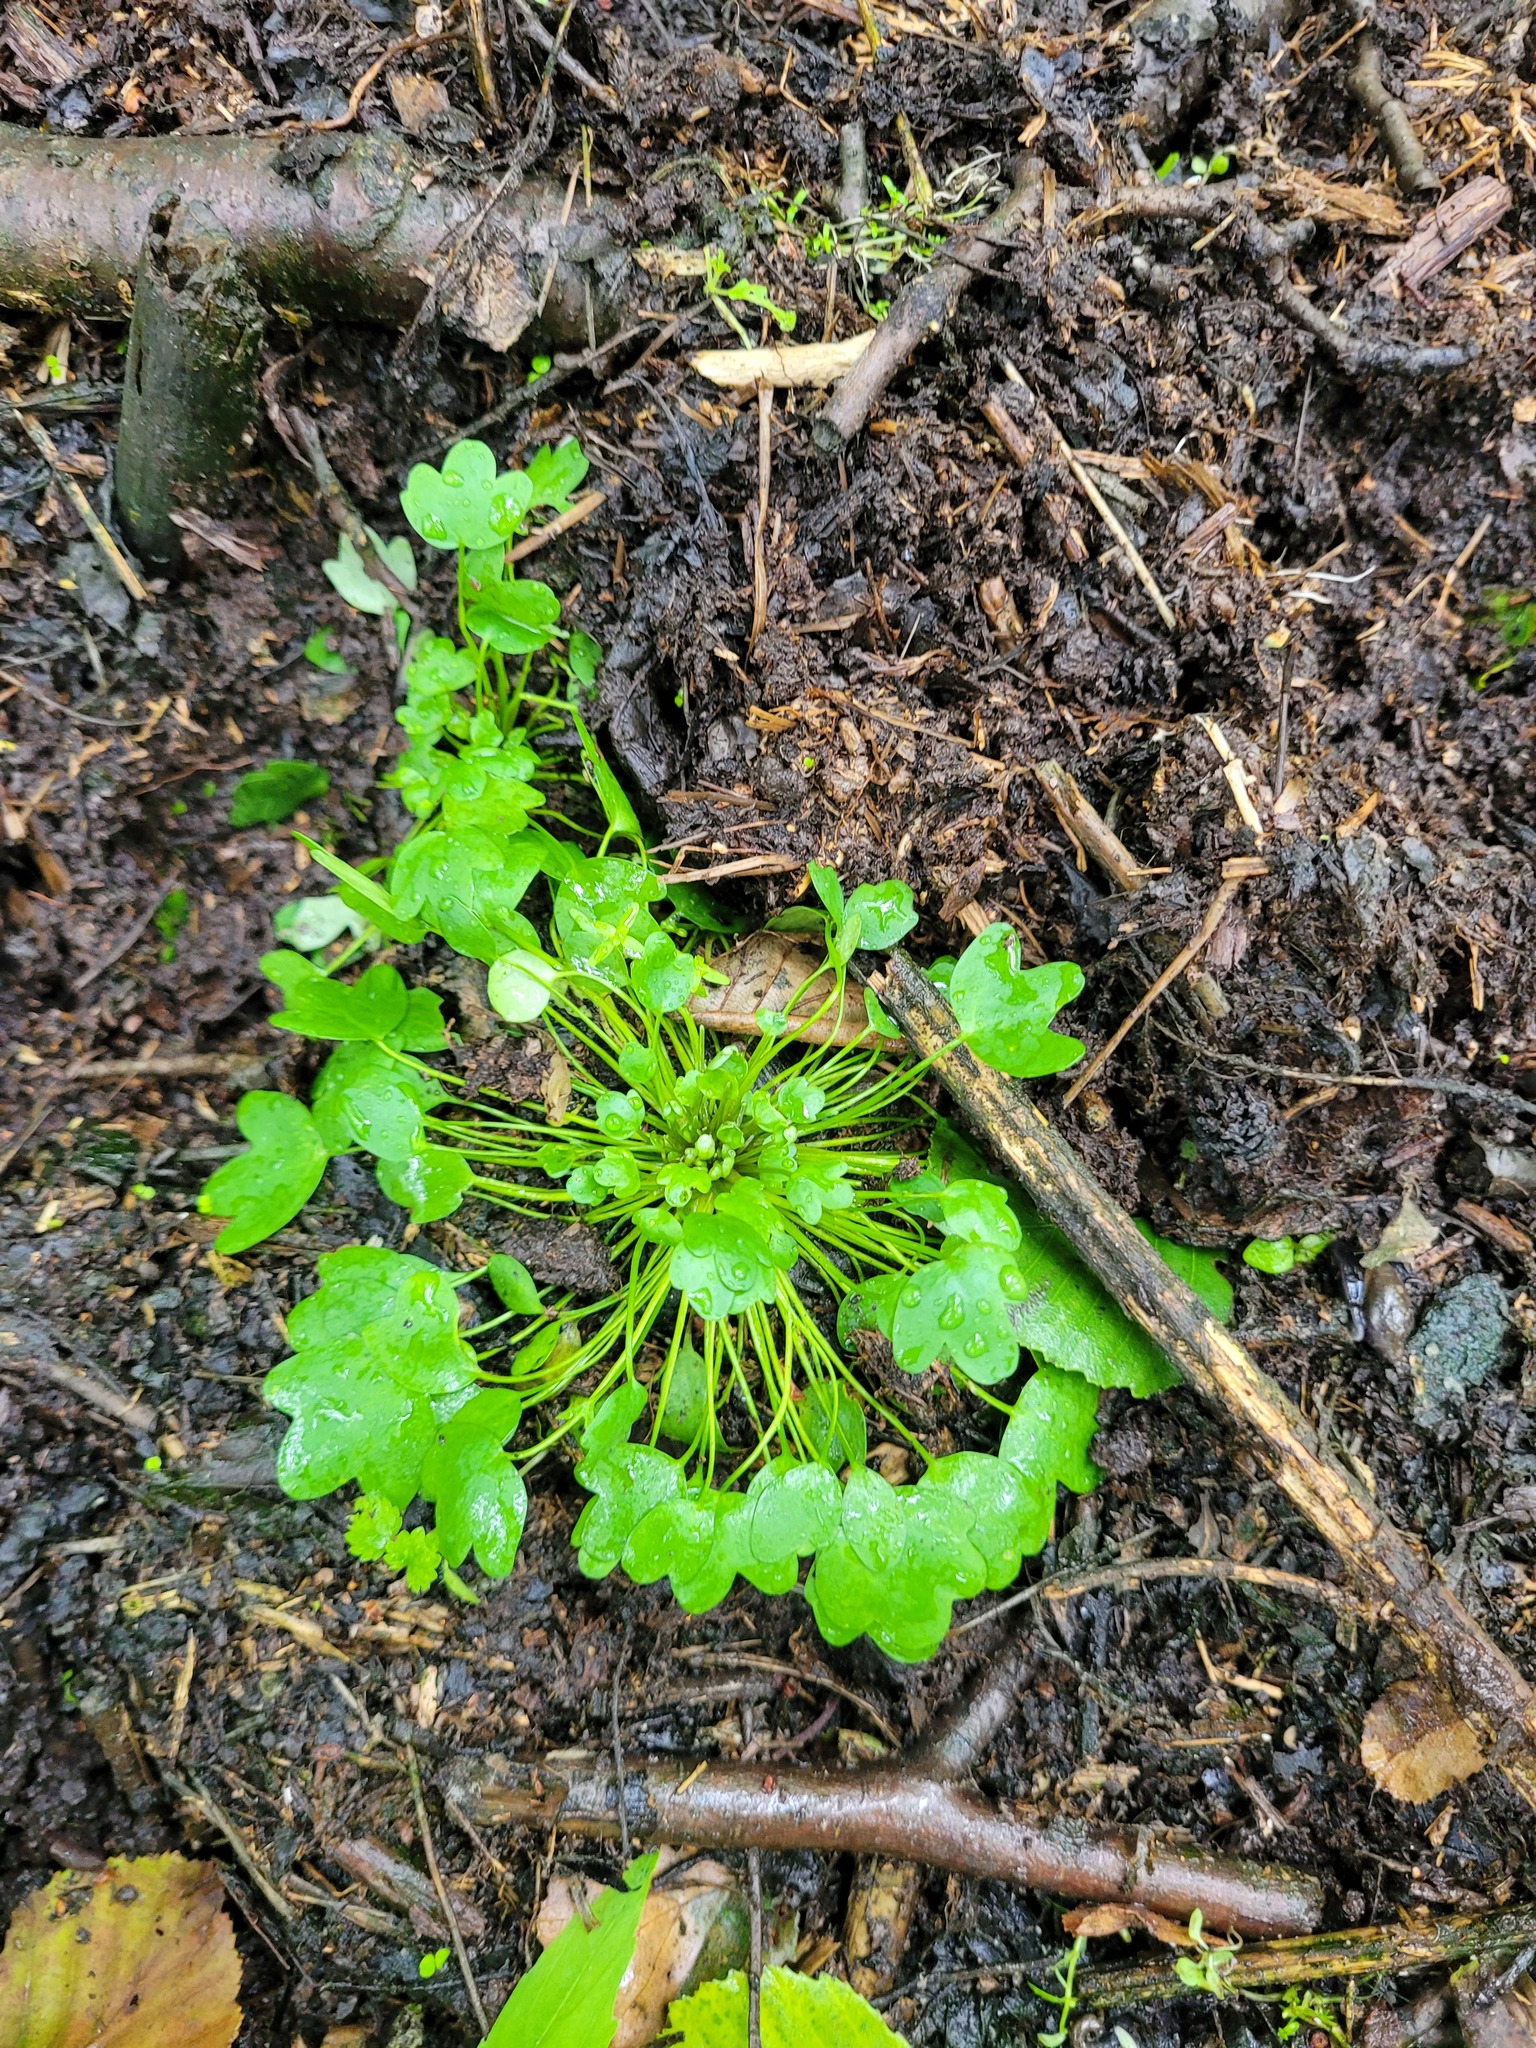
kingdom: Plantae
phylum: Tracheophyta
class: Magnoliopsida
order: Ranunculales
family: Ranunculaceae
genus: Ranunculus
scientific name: Ranunculus polyphyllus
